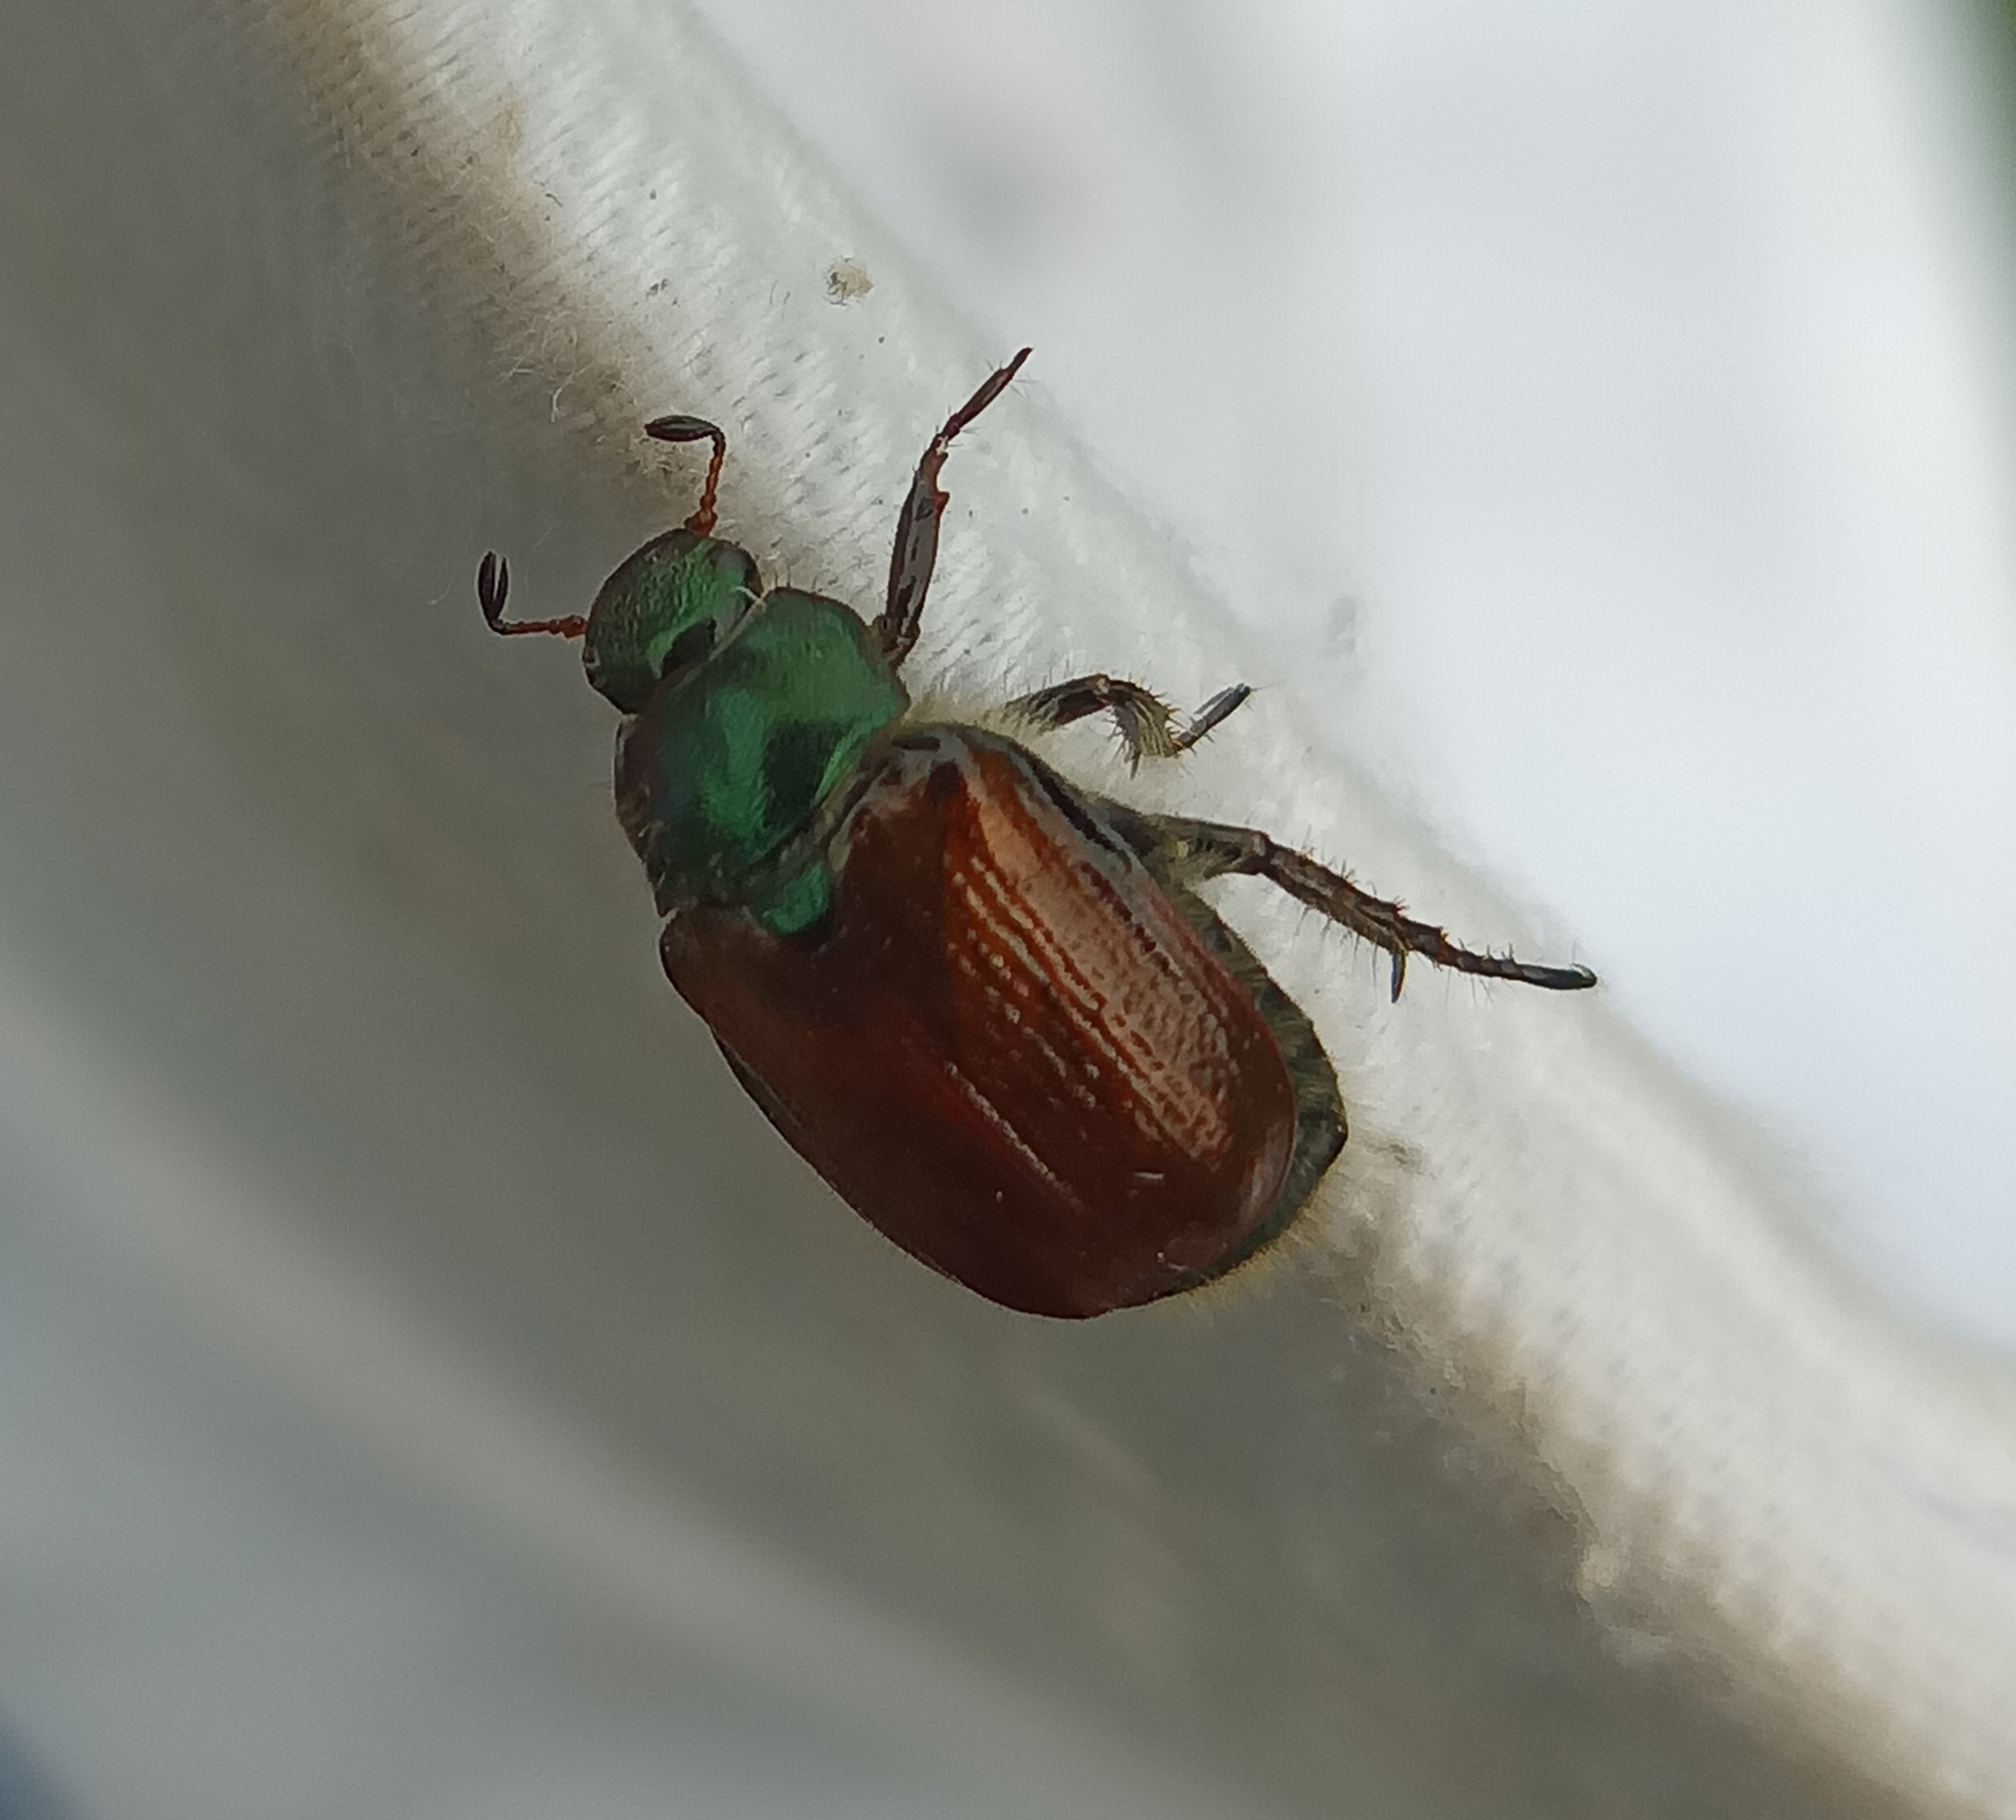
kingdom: Animalia
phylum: Arthropoda
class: Insecta
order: Coleoptera
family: Scarabaeidae
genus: Phyllopertha
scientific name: Phyllopertha horticola
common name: Garden chafer
